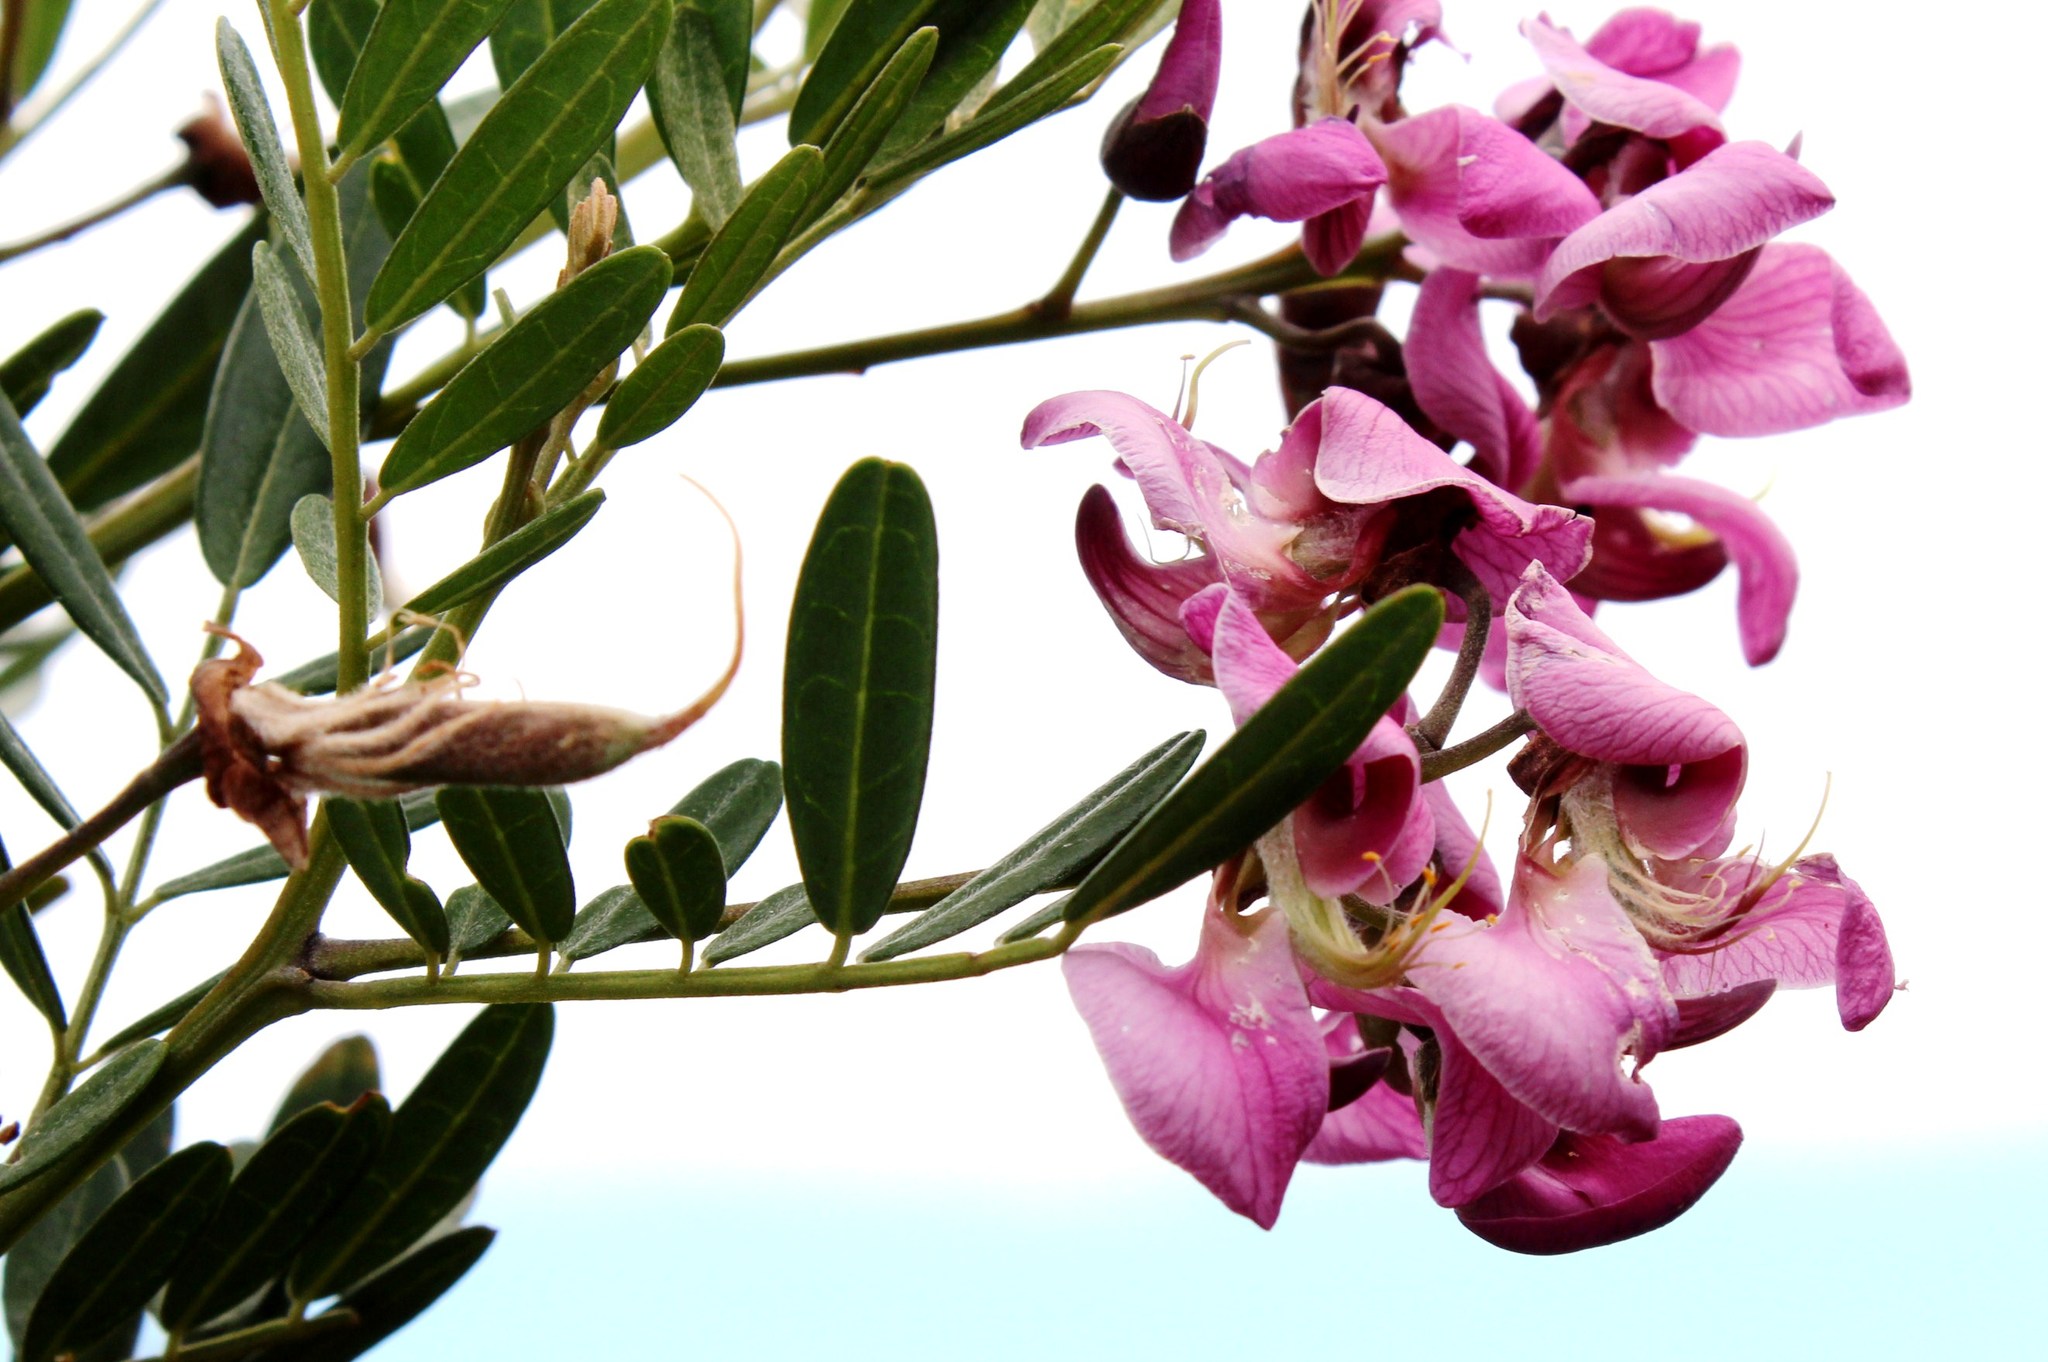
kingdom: Plantae
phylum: Tracheophyta
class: Magnoliopsida
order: Fabales
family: Fabaceae
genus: Virgilia
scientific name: Virgilia divaricata
